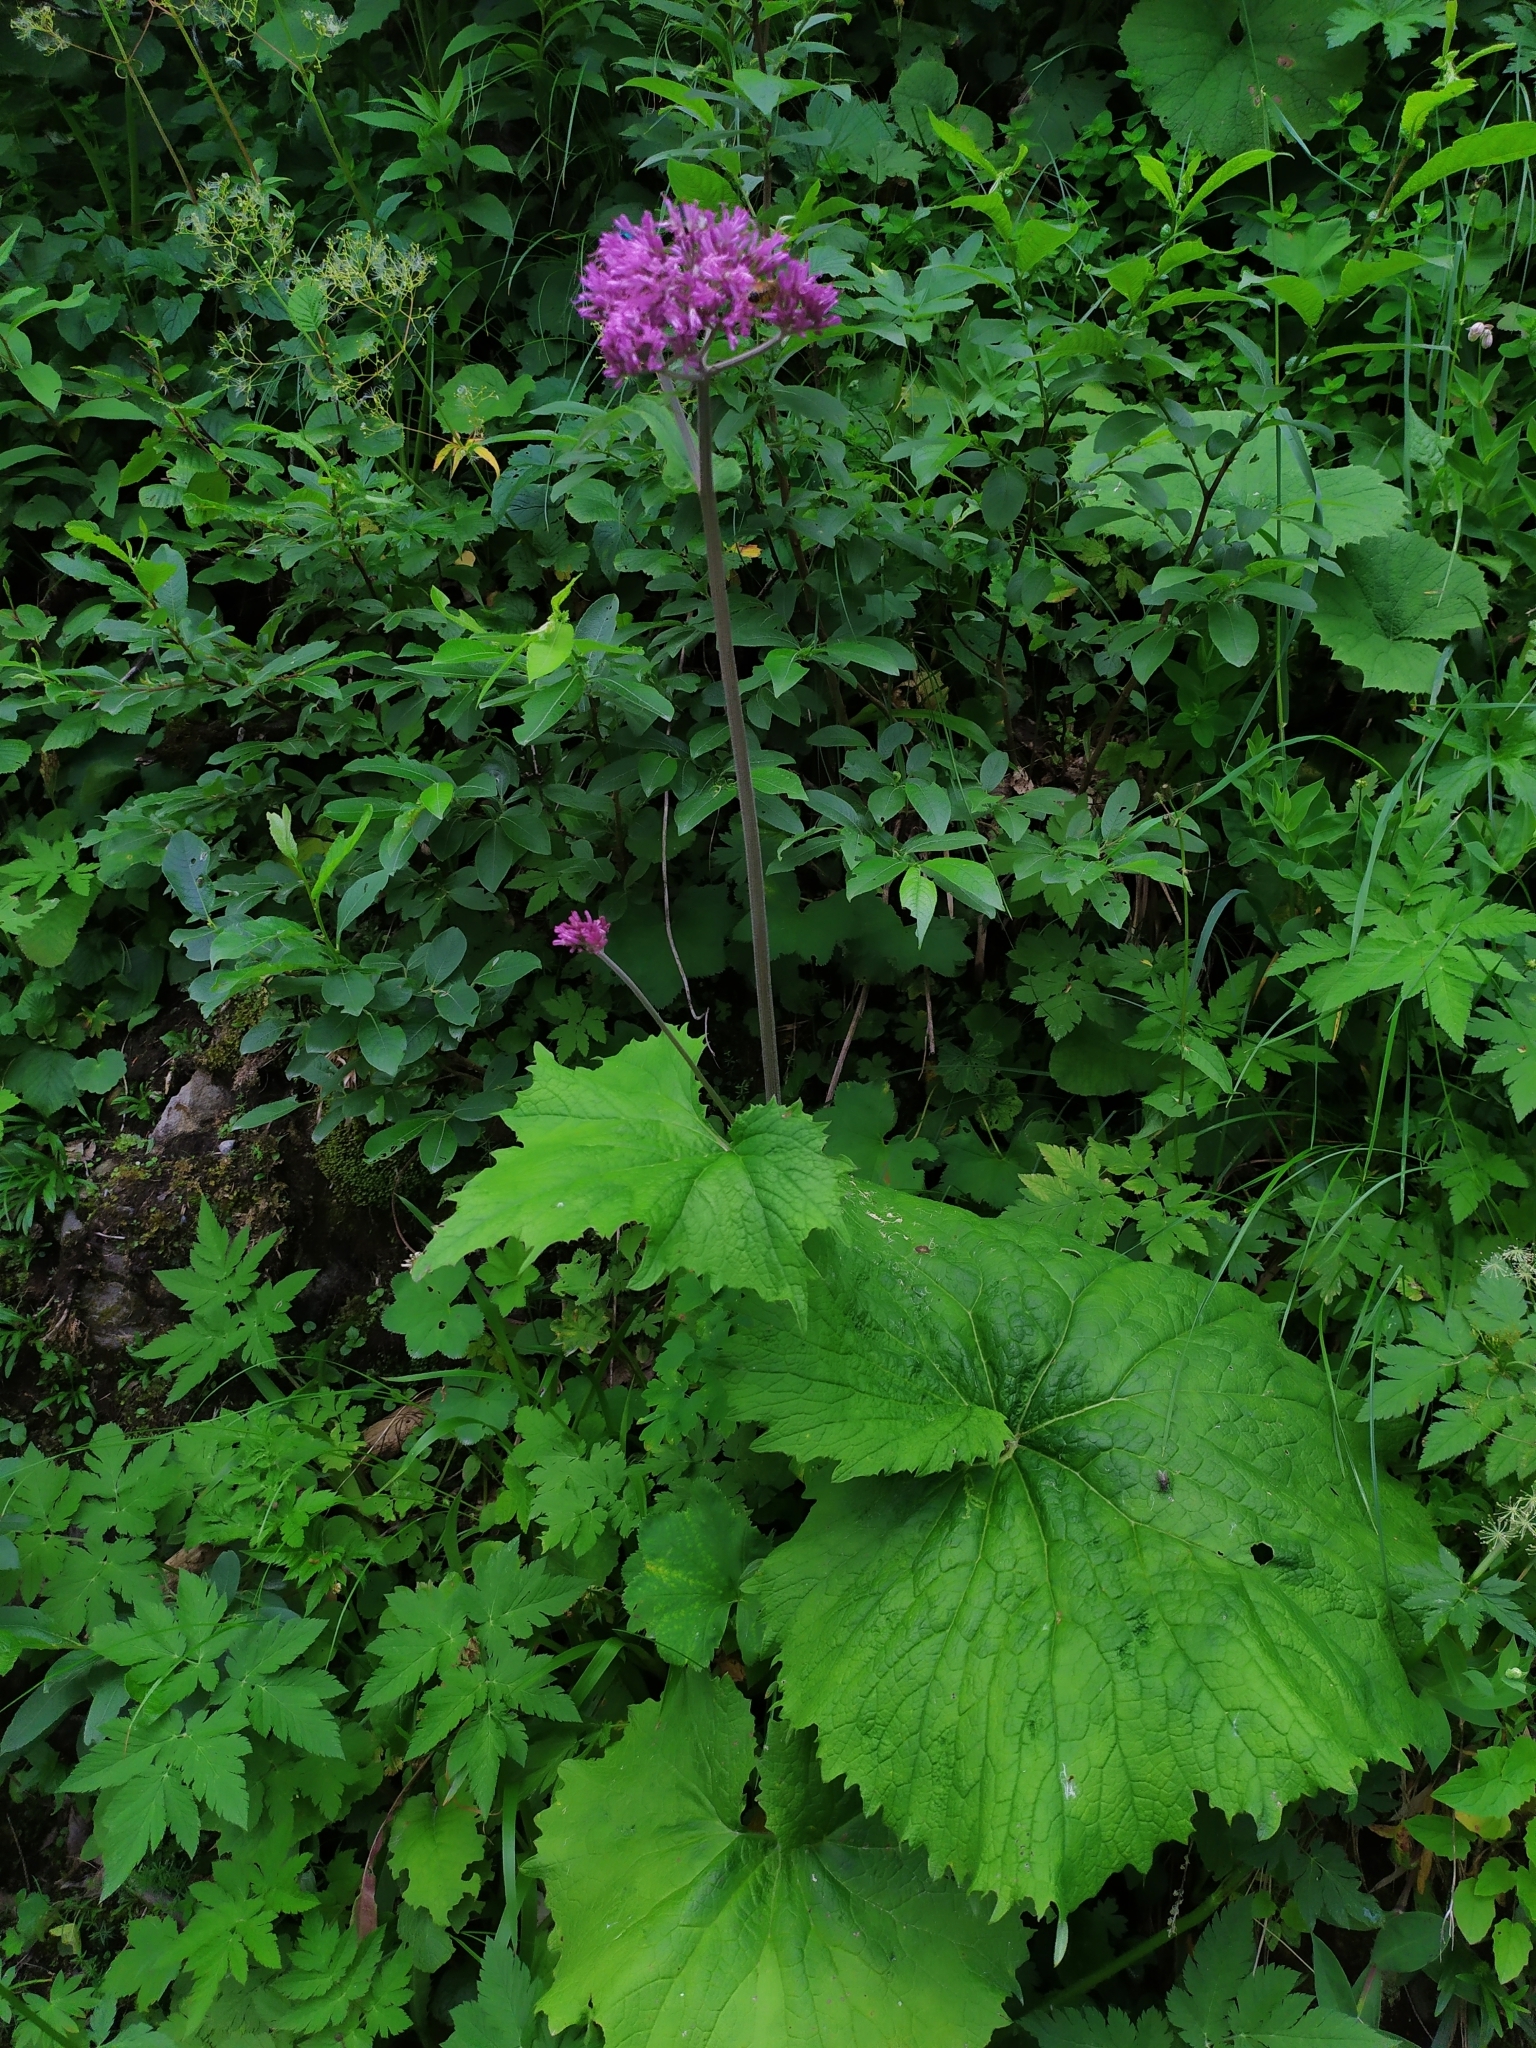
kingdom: Plantae
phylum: Tracheophyta
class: Magnoliopsida
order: Asterales
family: Asteraceae
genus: Adenostyles
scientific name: Adenostyles alliariae
